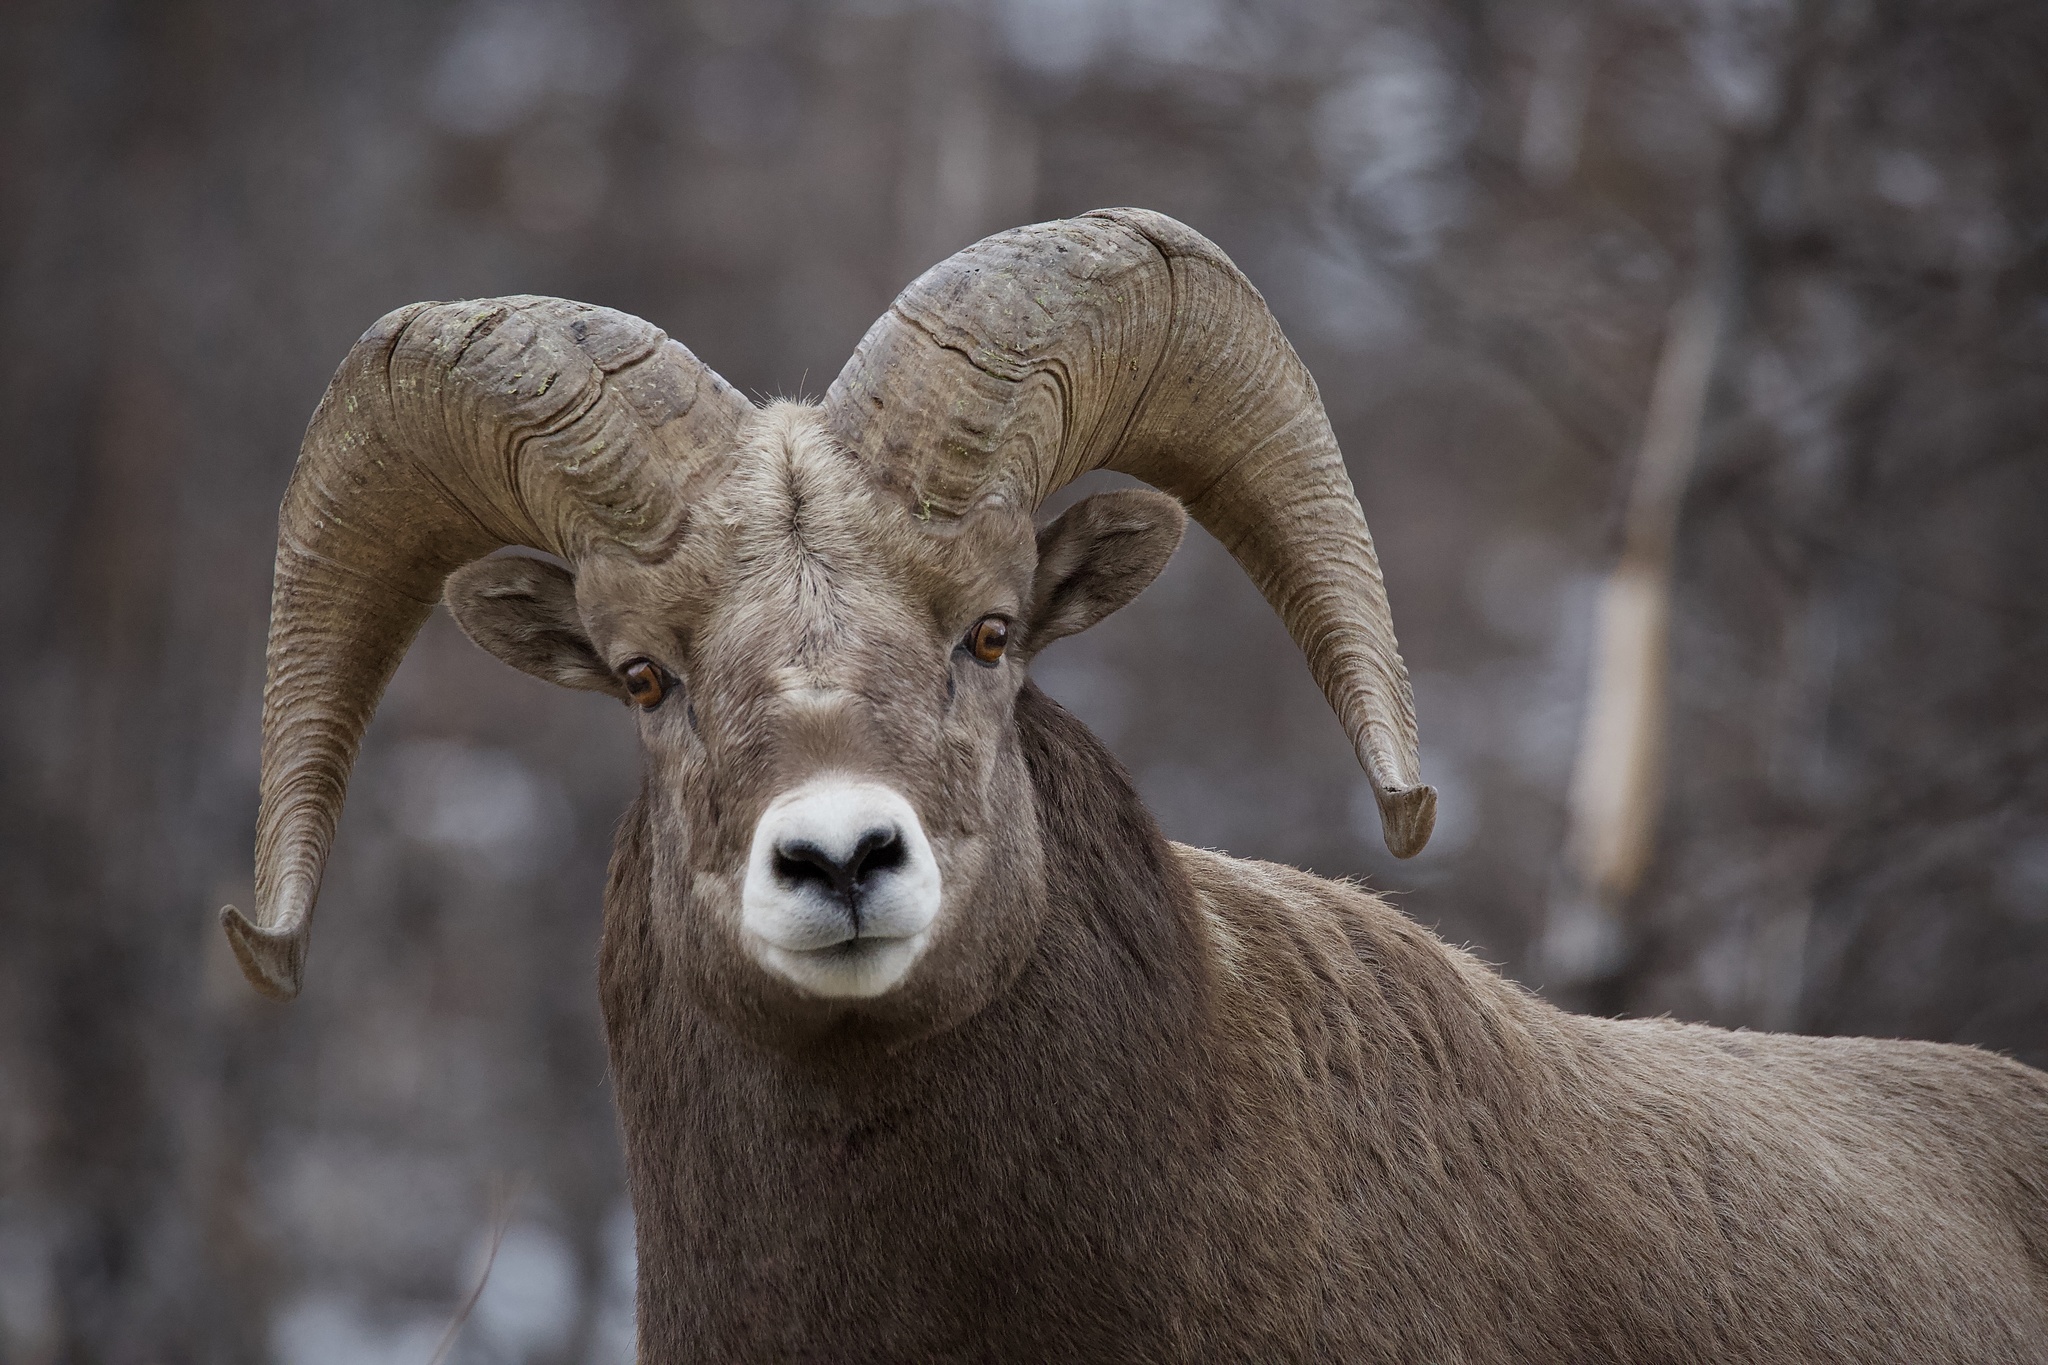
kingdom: Animalia
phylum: Chordata
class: Mammalia
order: Artiodactyla
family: Bovidae
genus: Ovis
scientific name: Ovis canadensis
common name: Bighorn sheep
